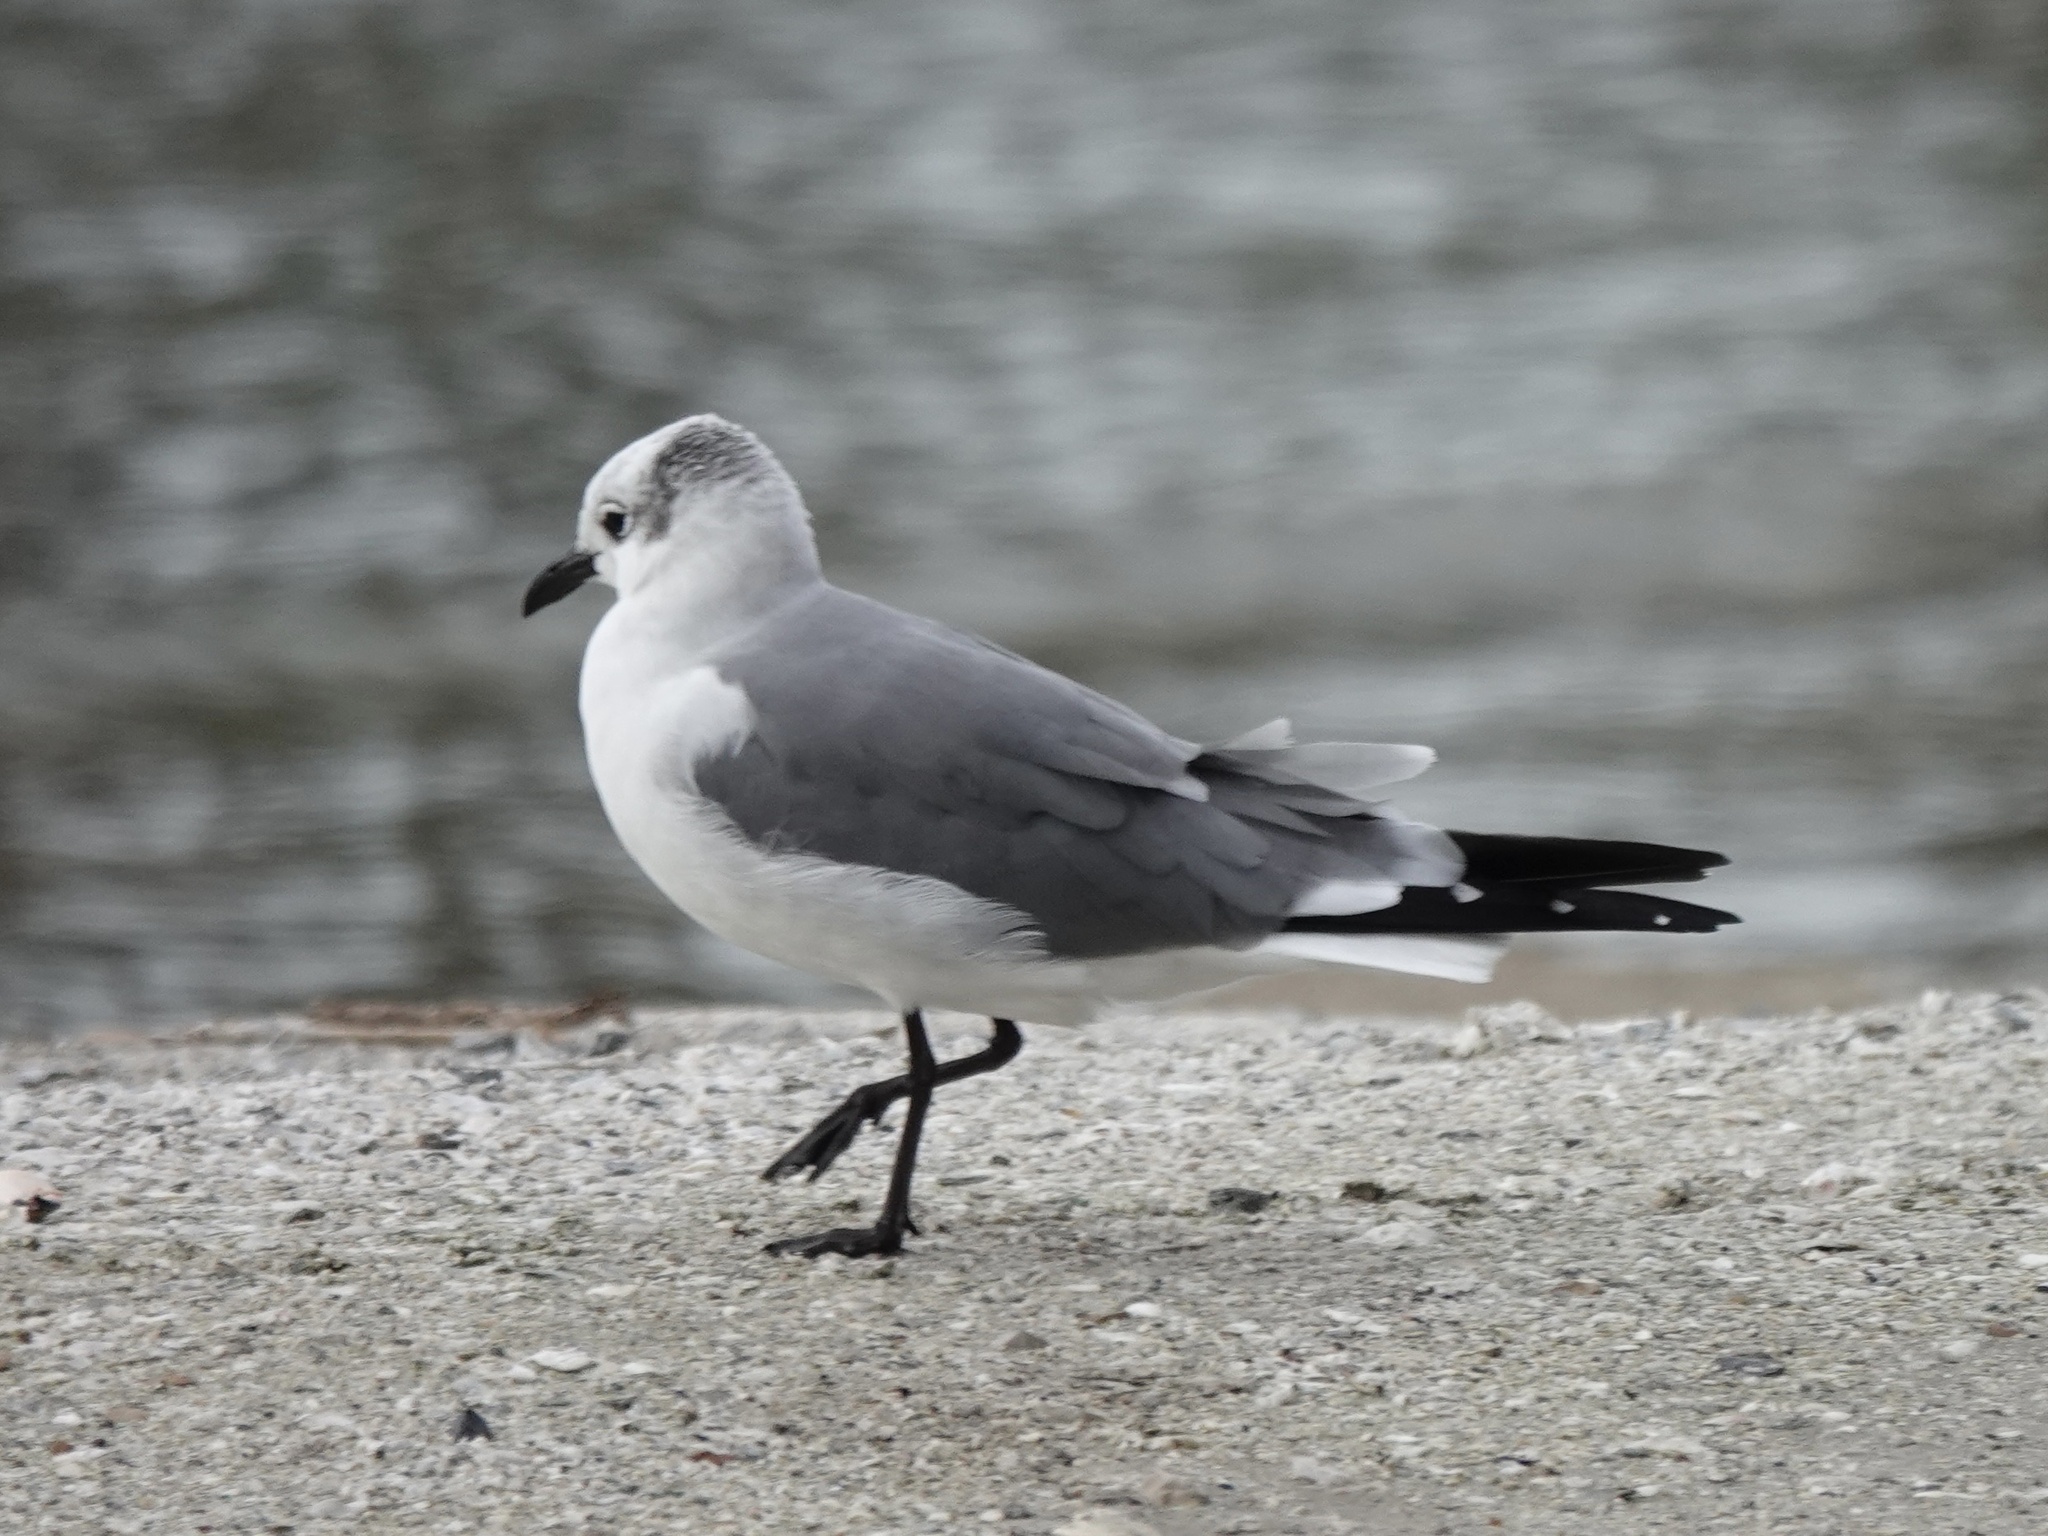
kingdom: Animalia
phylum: Chordata
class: Aves
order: Charadriiformes
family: Laridae
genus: Leucophaeus
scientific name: Leucophaeus atricilla
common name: Laughing gull
